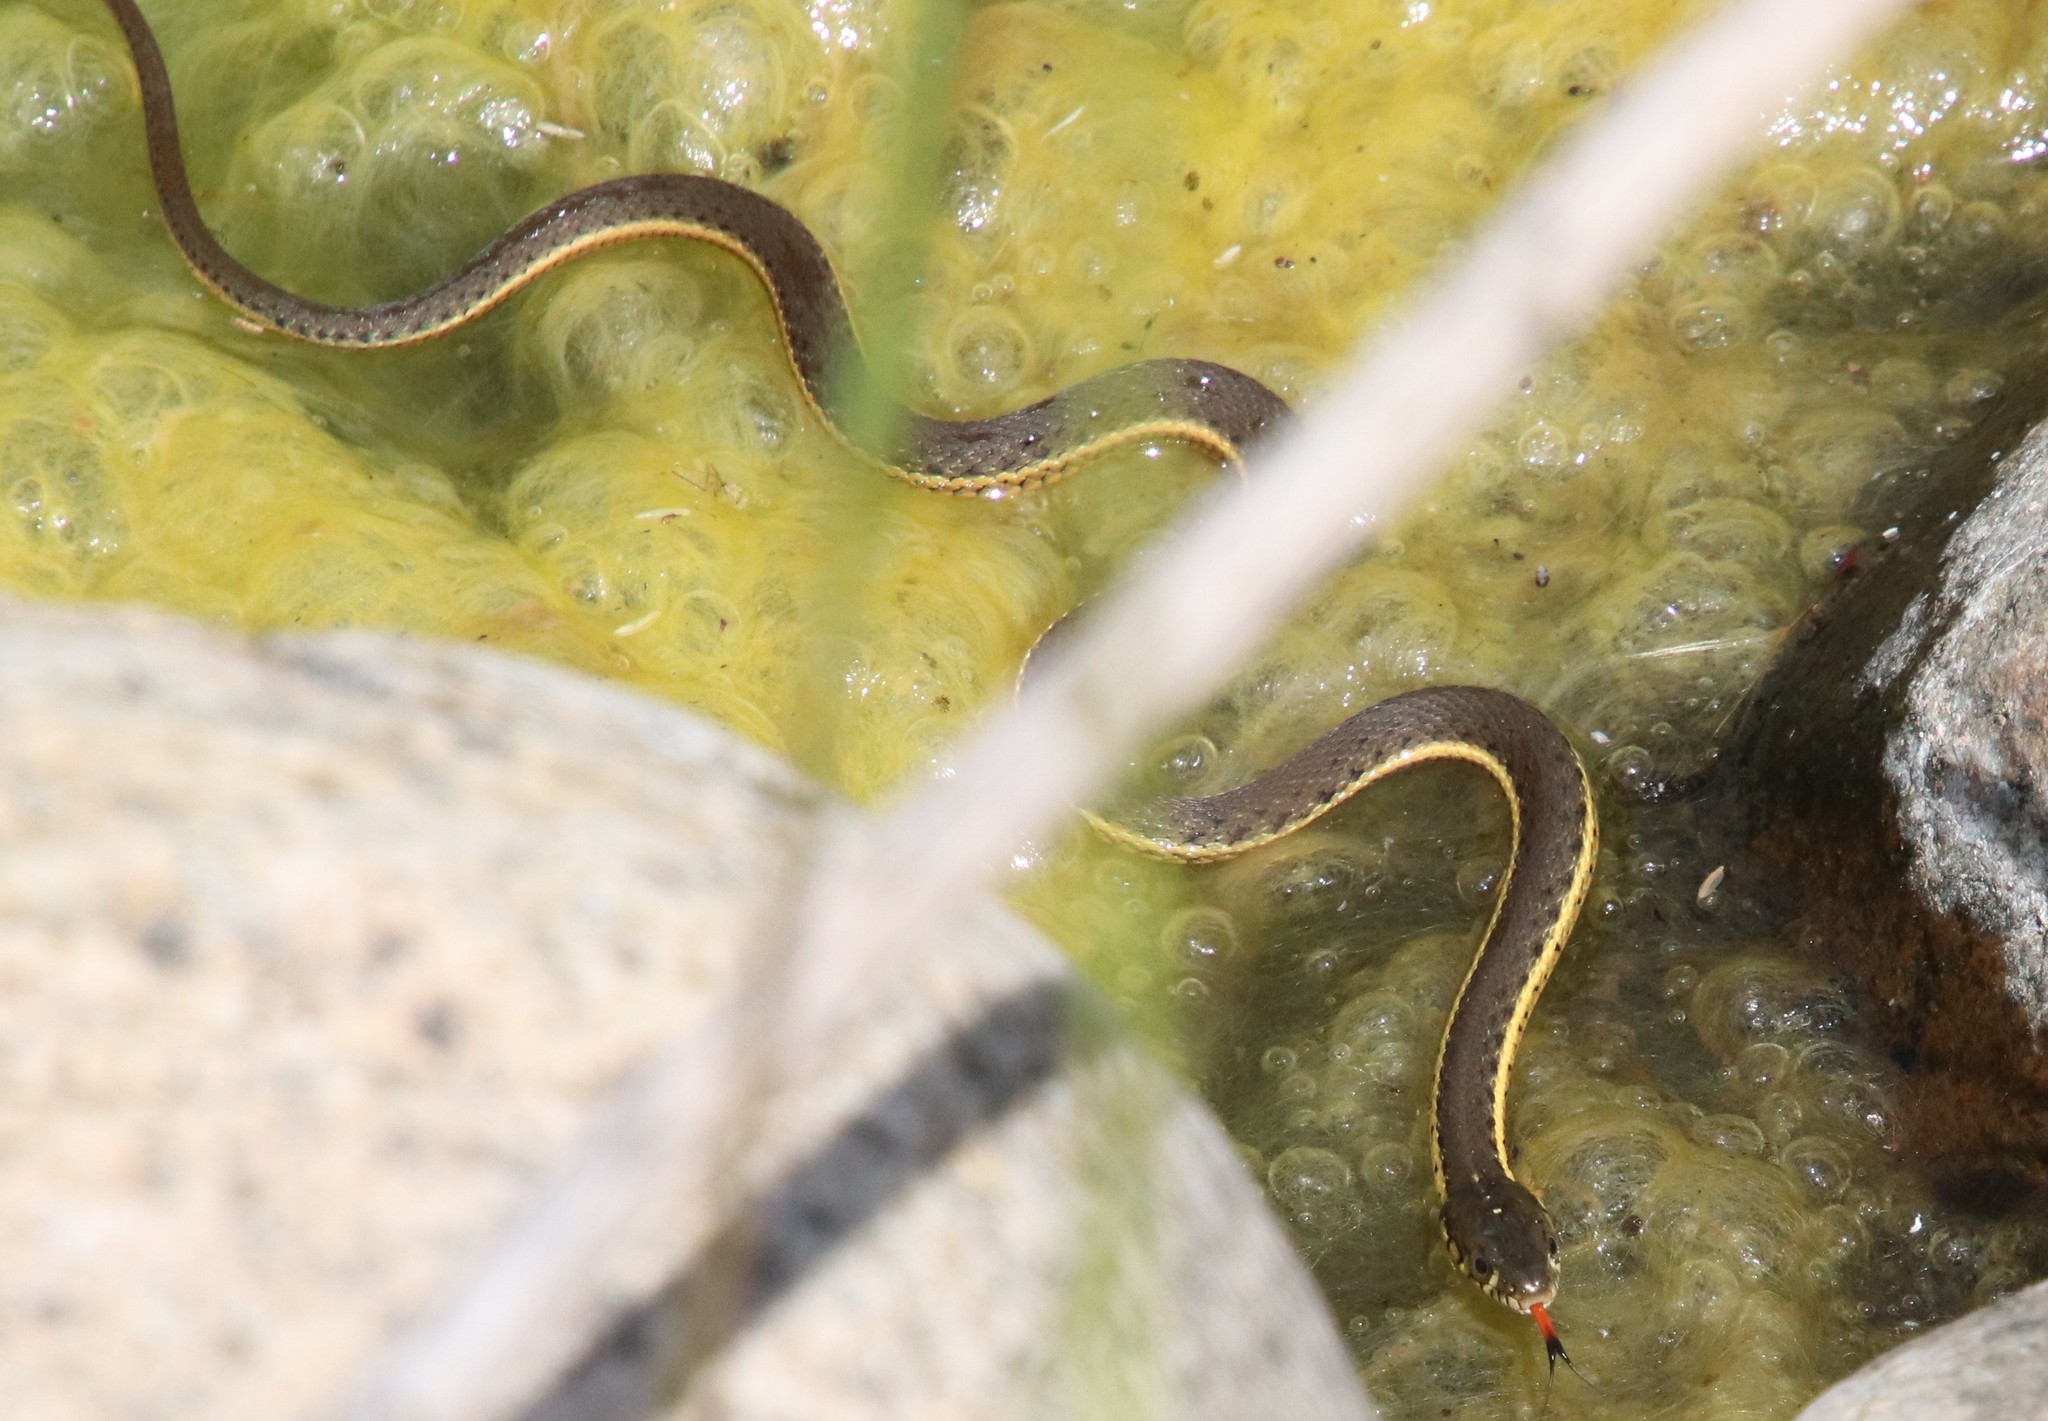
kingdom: Animalia
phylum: Chordata
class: Squamata
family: Colubridae
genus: Thamnophis
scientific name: Thamnophis hammondii
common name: Two-striped garter snake
